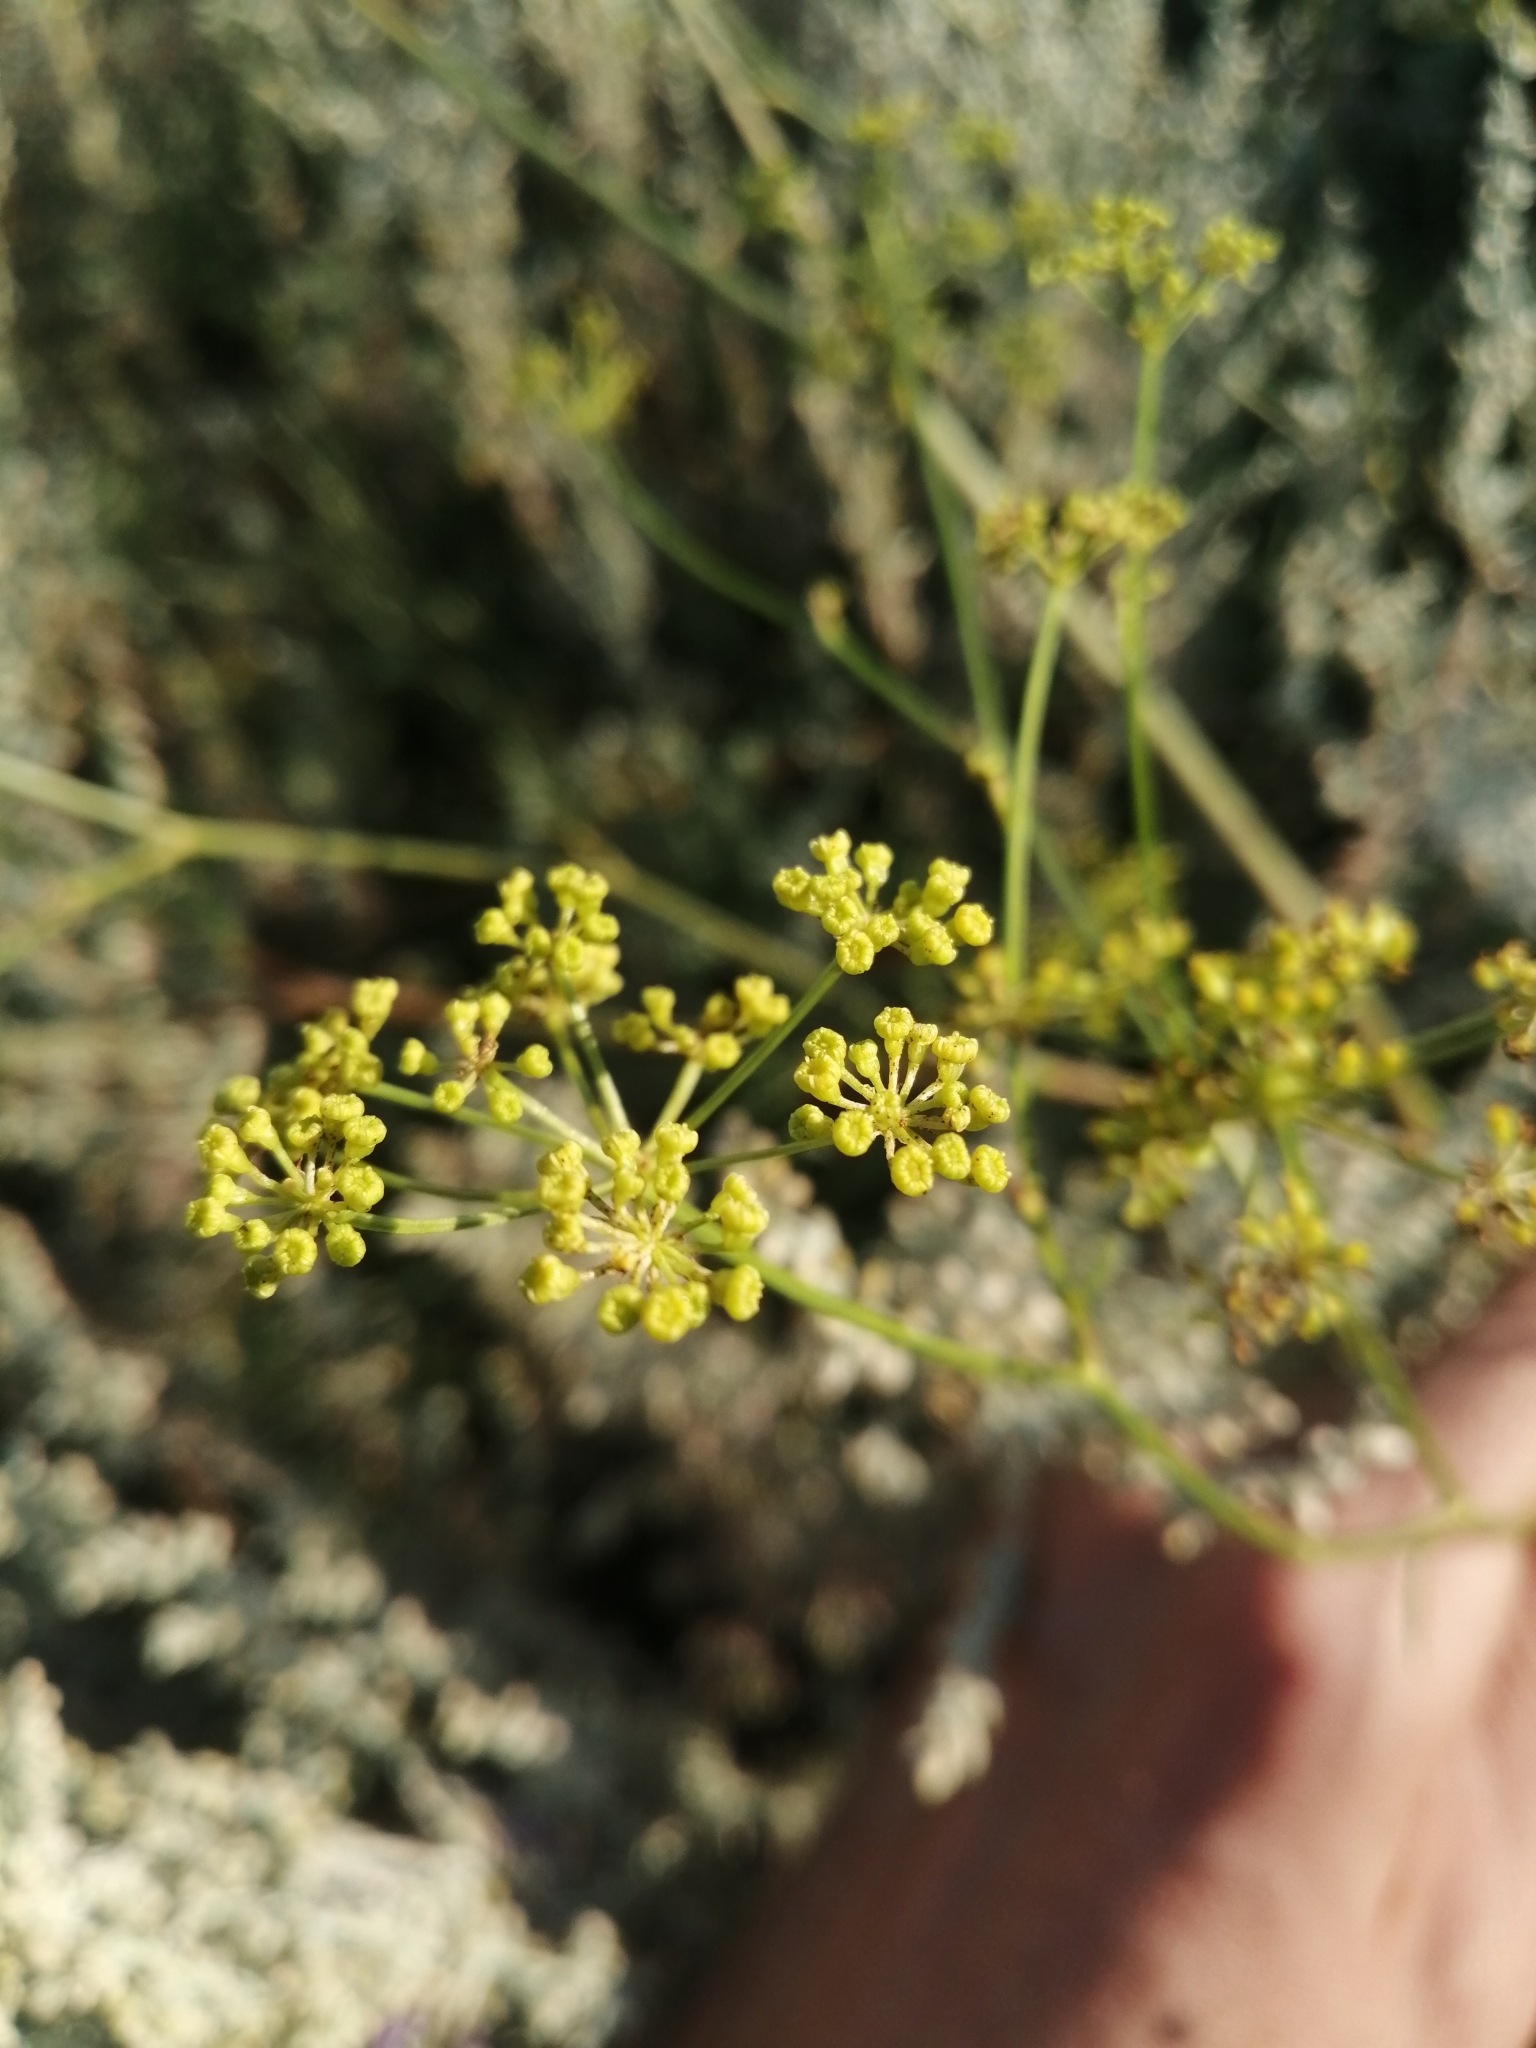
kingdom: Plantae
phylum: Tracheophyta
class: Magnoliopsida
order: Apiales
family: Apiaceae
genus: Silaum
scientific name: Silaum silaus
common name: Pepper-saxifrage
